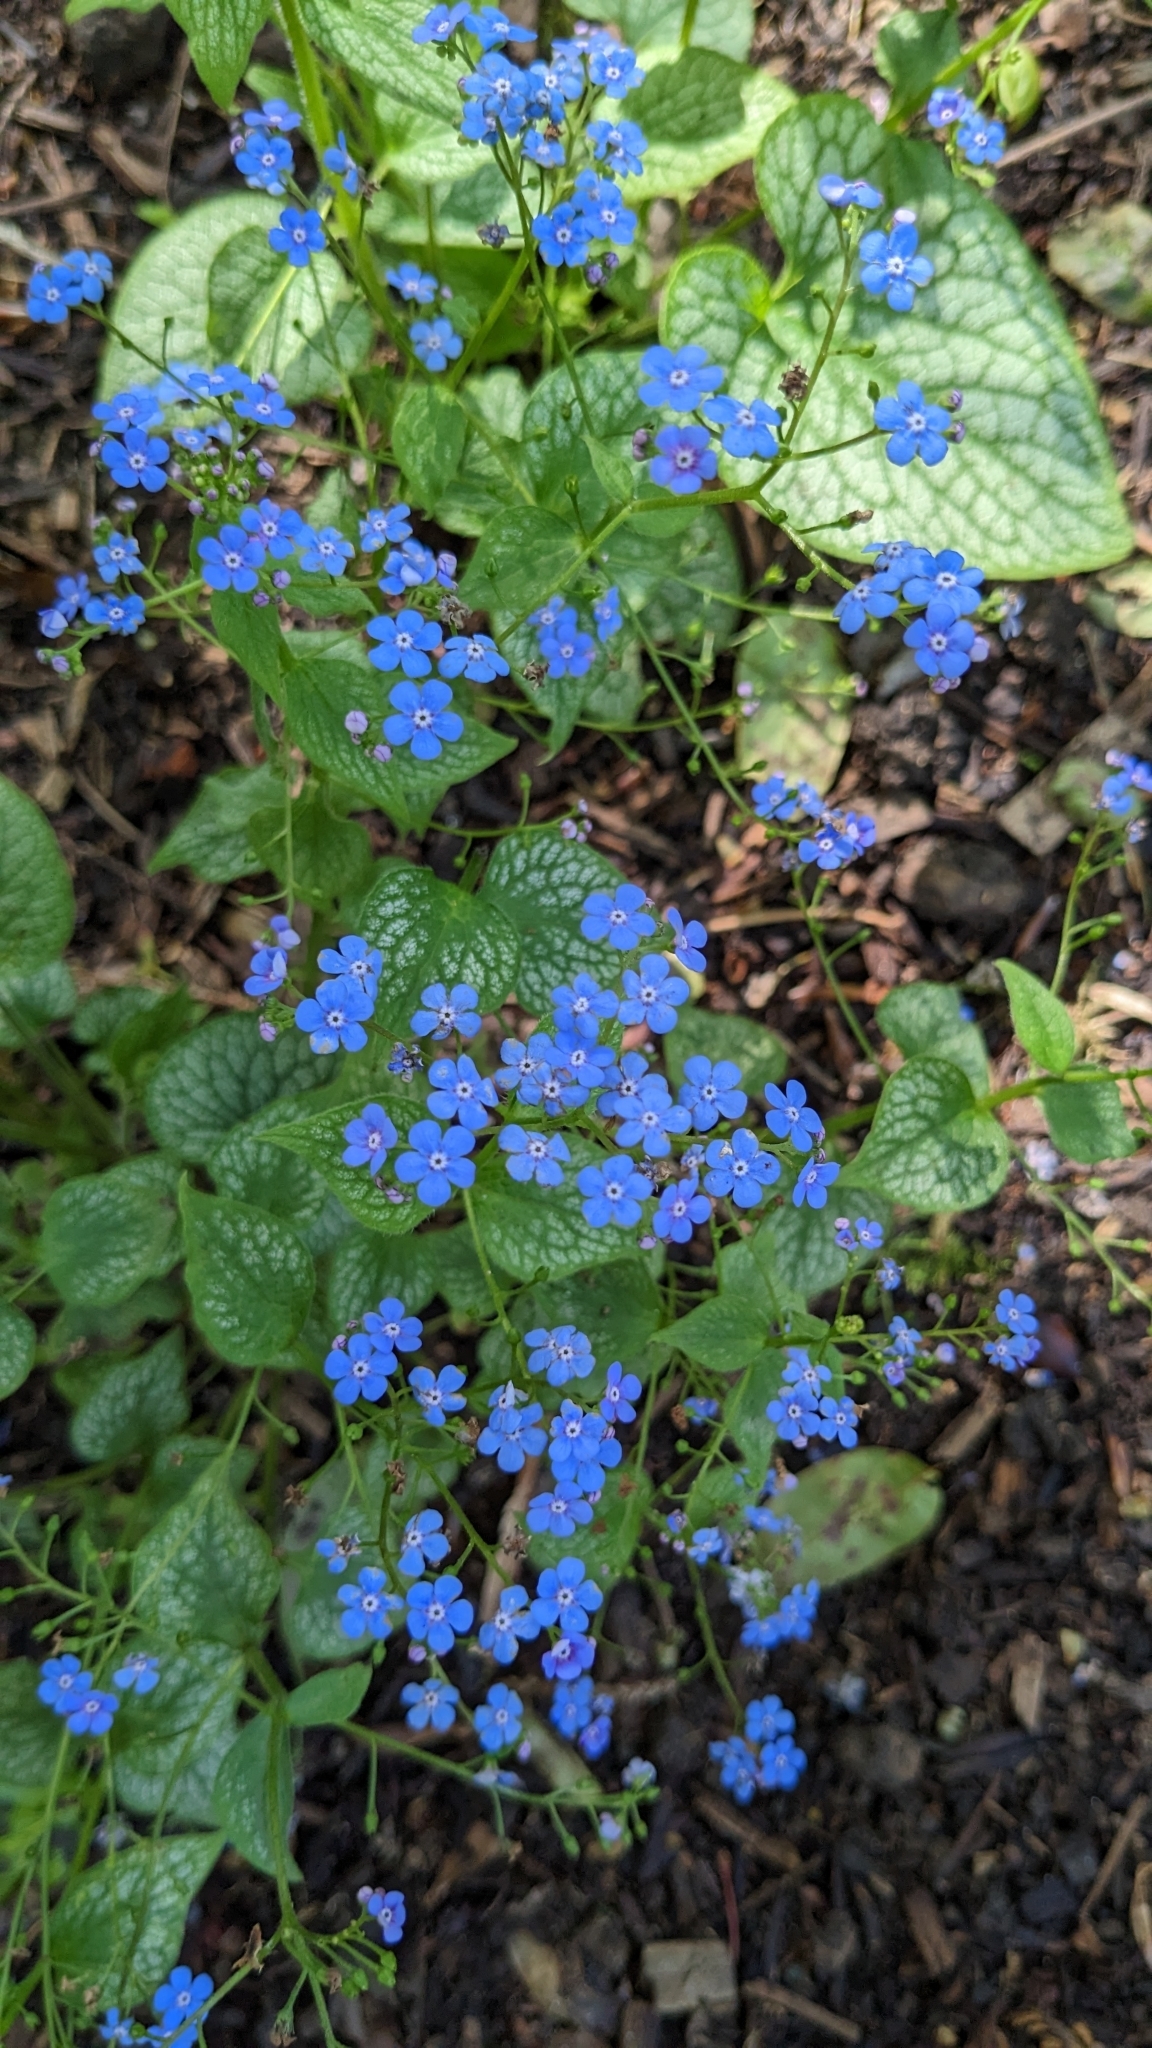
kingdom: Plantae
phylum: Tracheophyta
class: Magnoliopsida
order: Boraginales
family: Boraginaceae
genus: Brunnera
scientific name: Brunnera macrophylla
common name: Great forget-me-not
